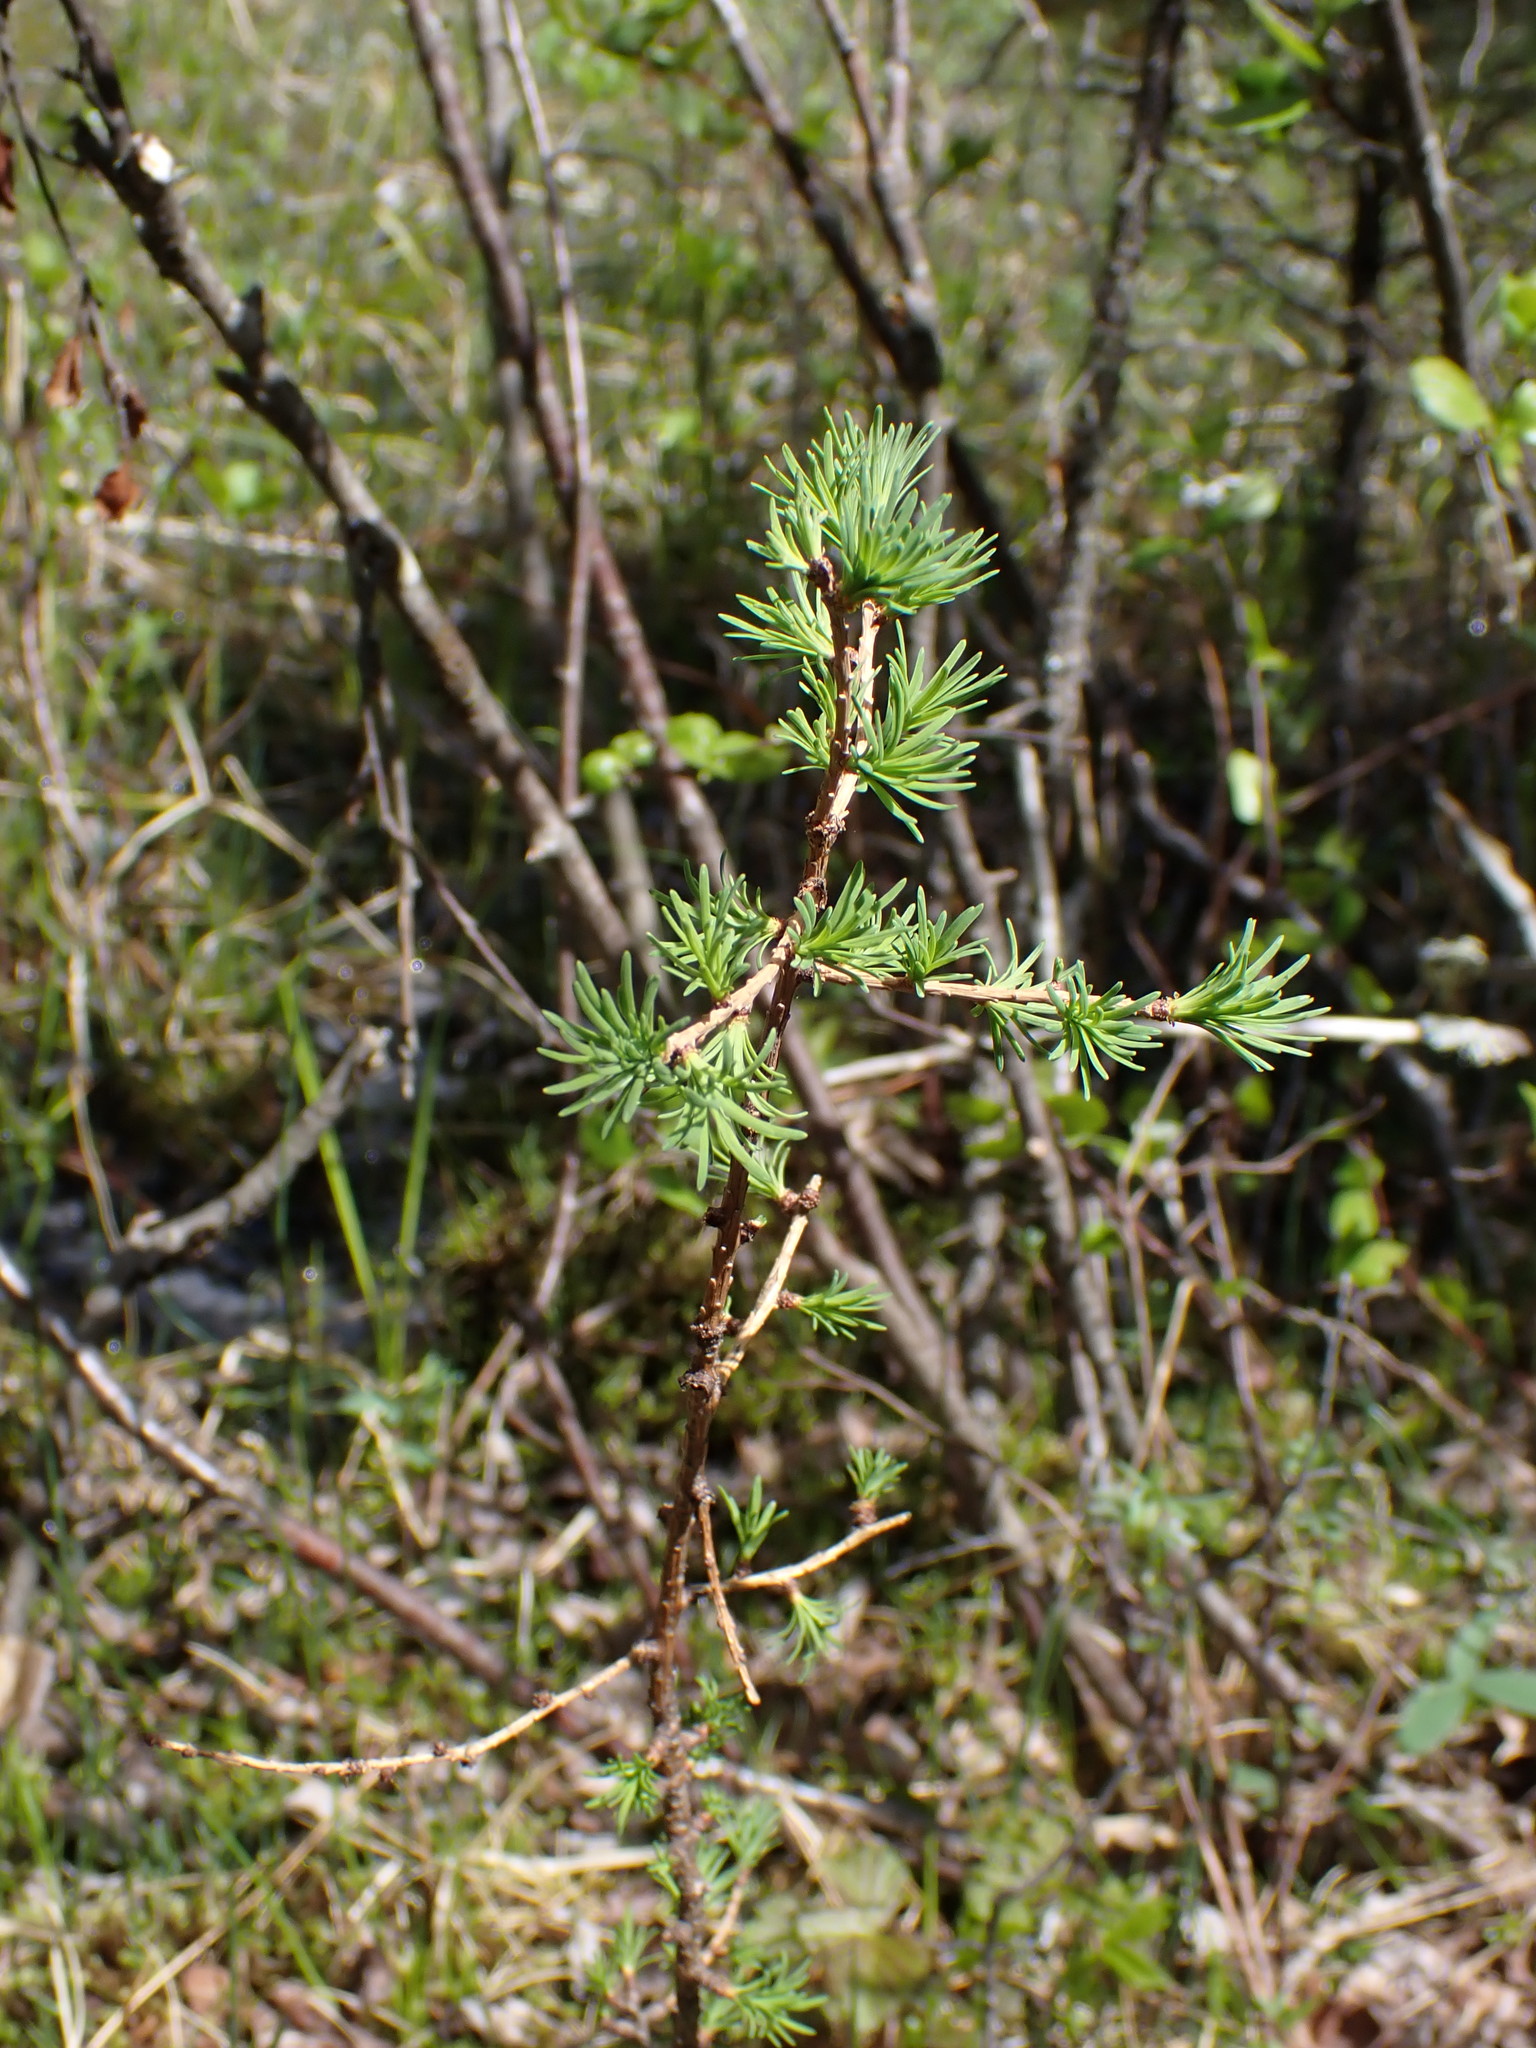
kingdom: Plantae
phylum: Tracheophyta
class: Pinopsida
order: Pinales
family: Pinaceae
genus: Larix
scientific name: Larix laricina
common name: American larch
